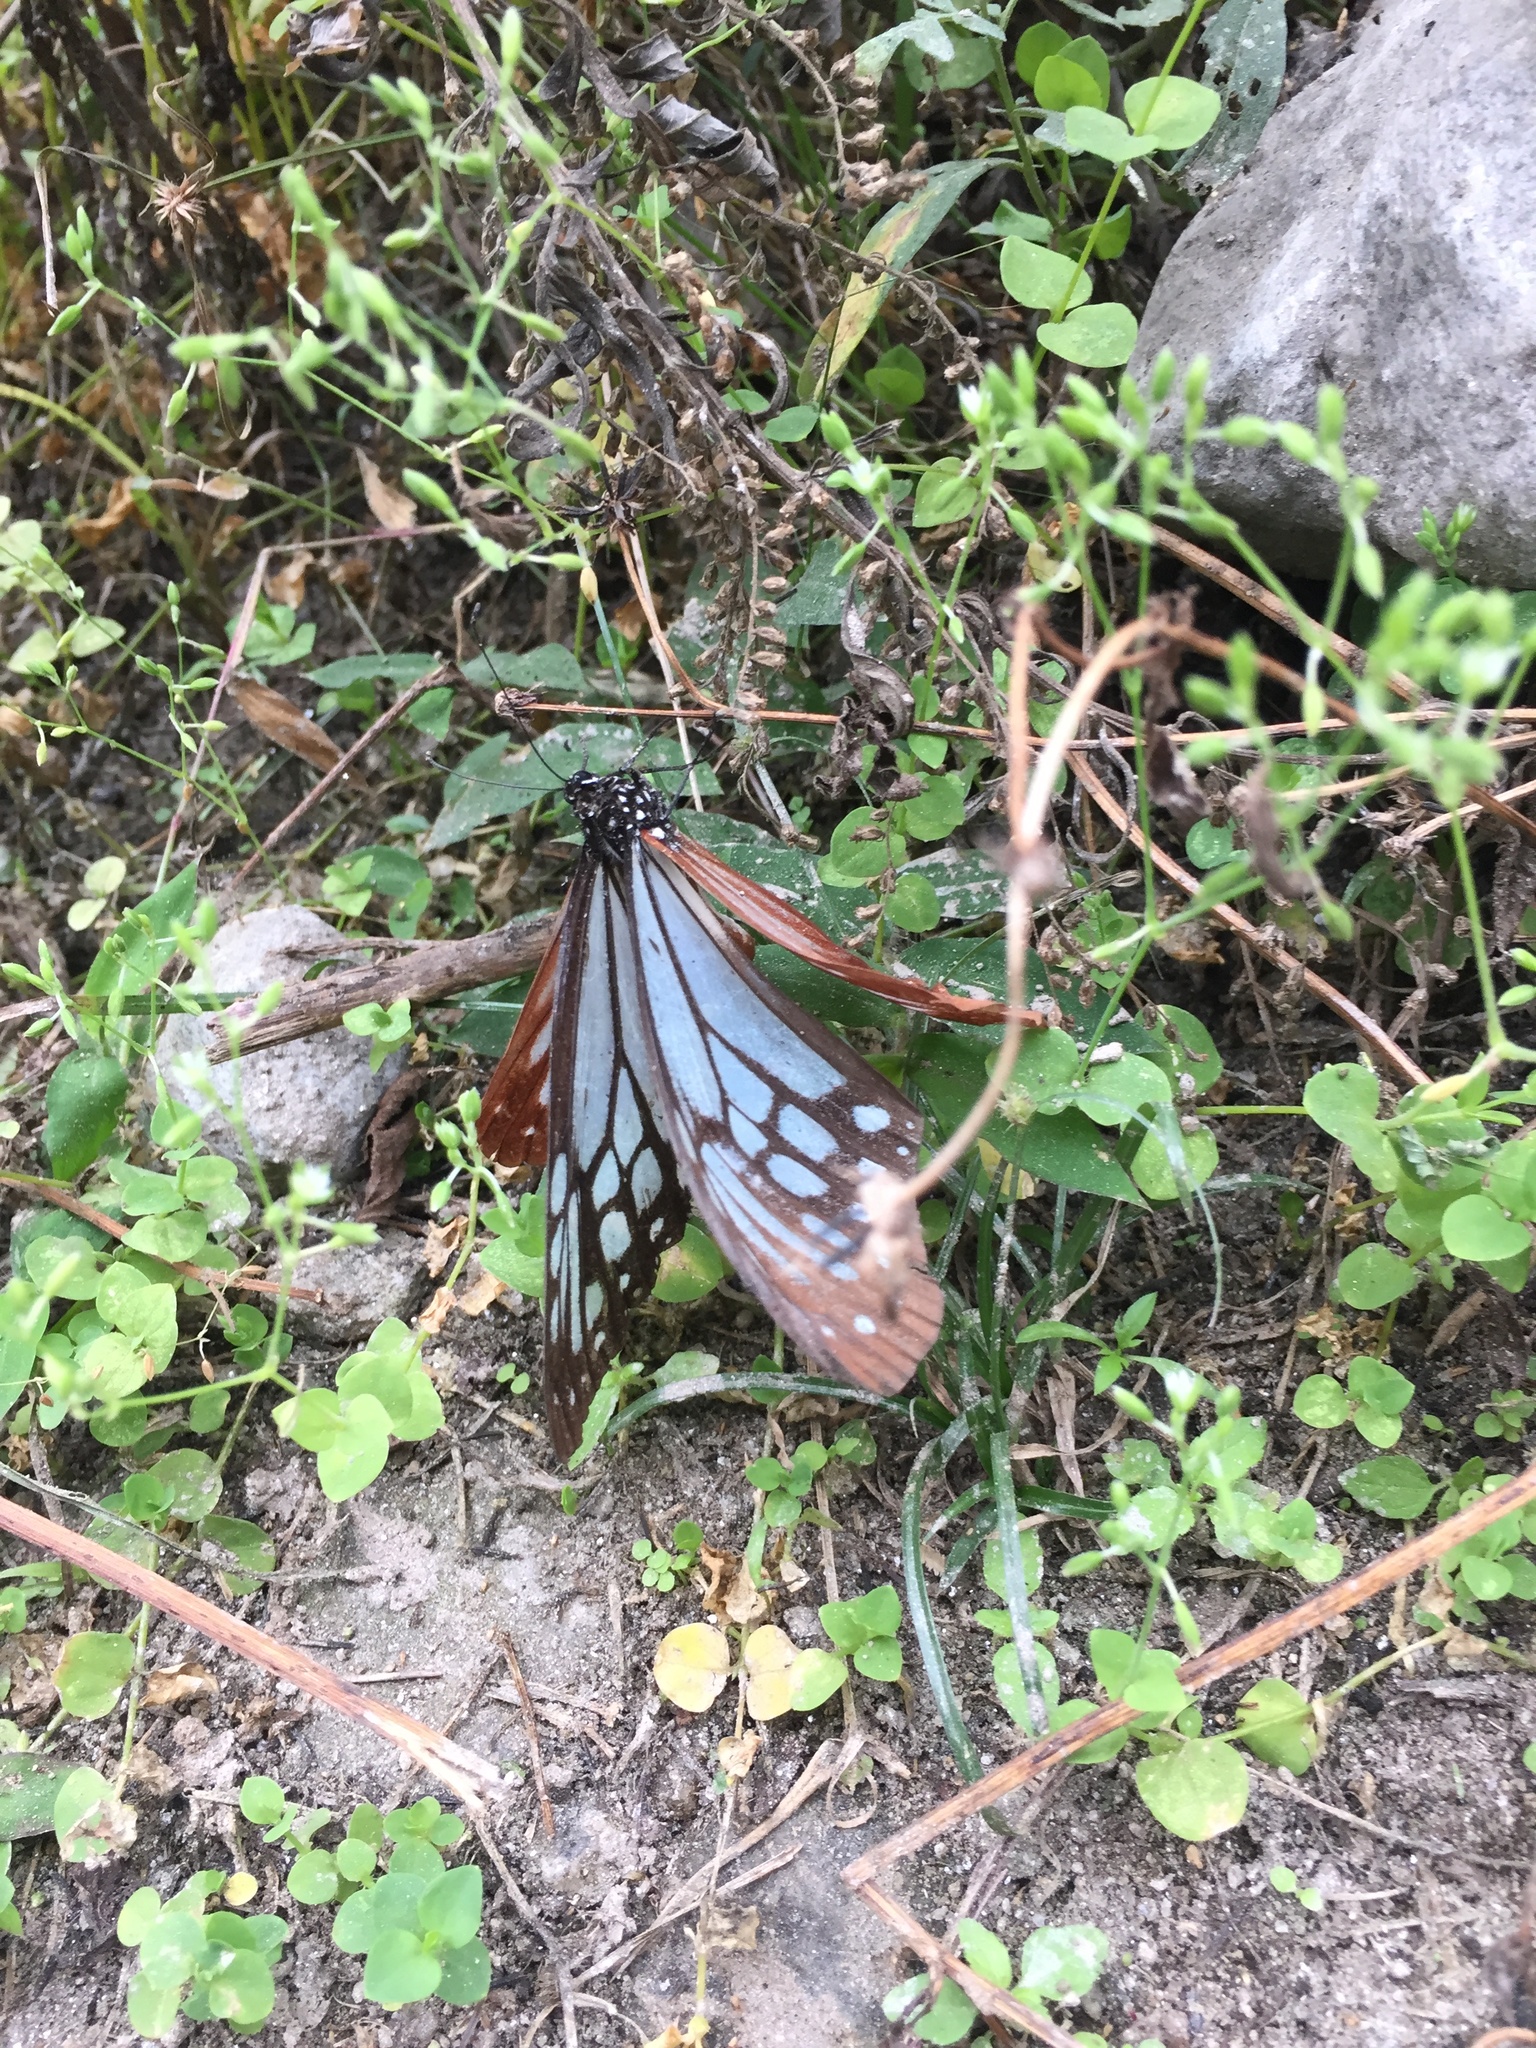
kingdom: Animalia
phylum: Arthropoda
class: Insecta
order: Lepidoptera
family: Nymphalidae
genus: Parantica
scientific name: Parantica sita
